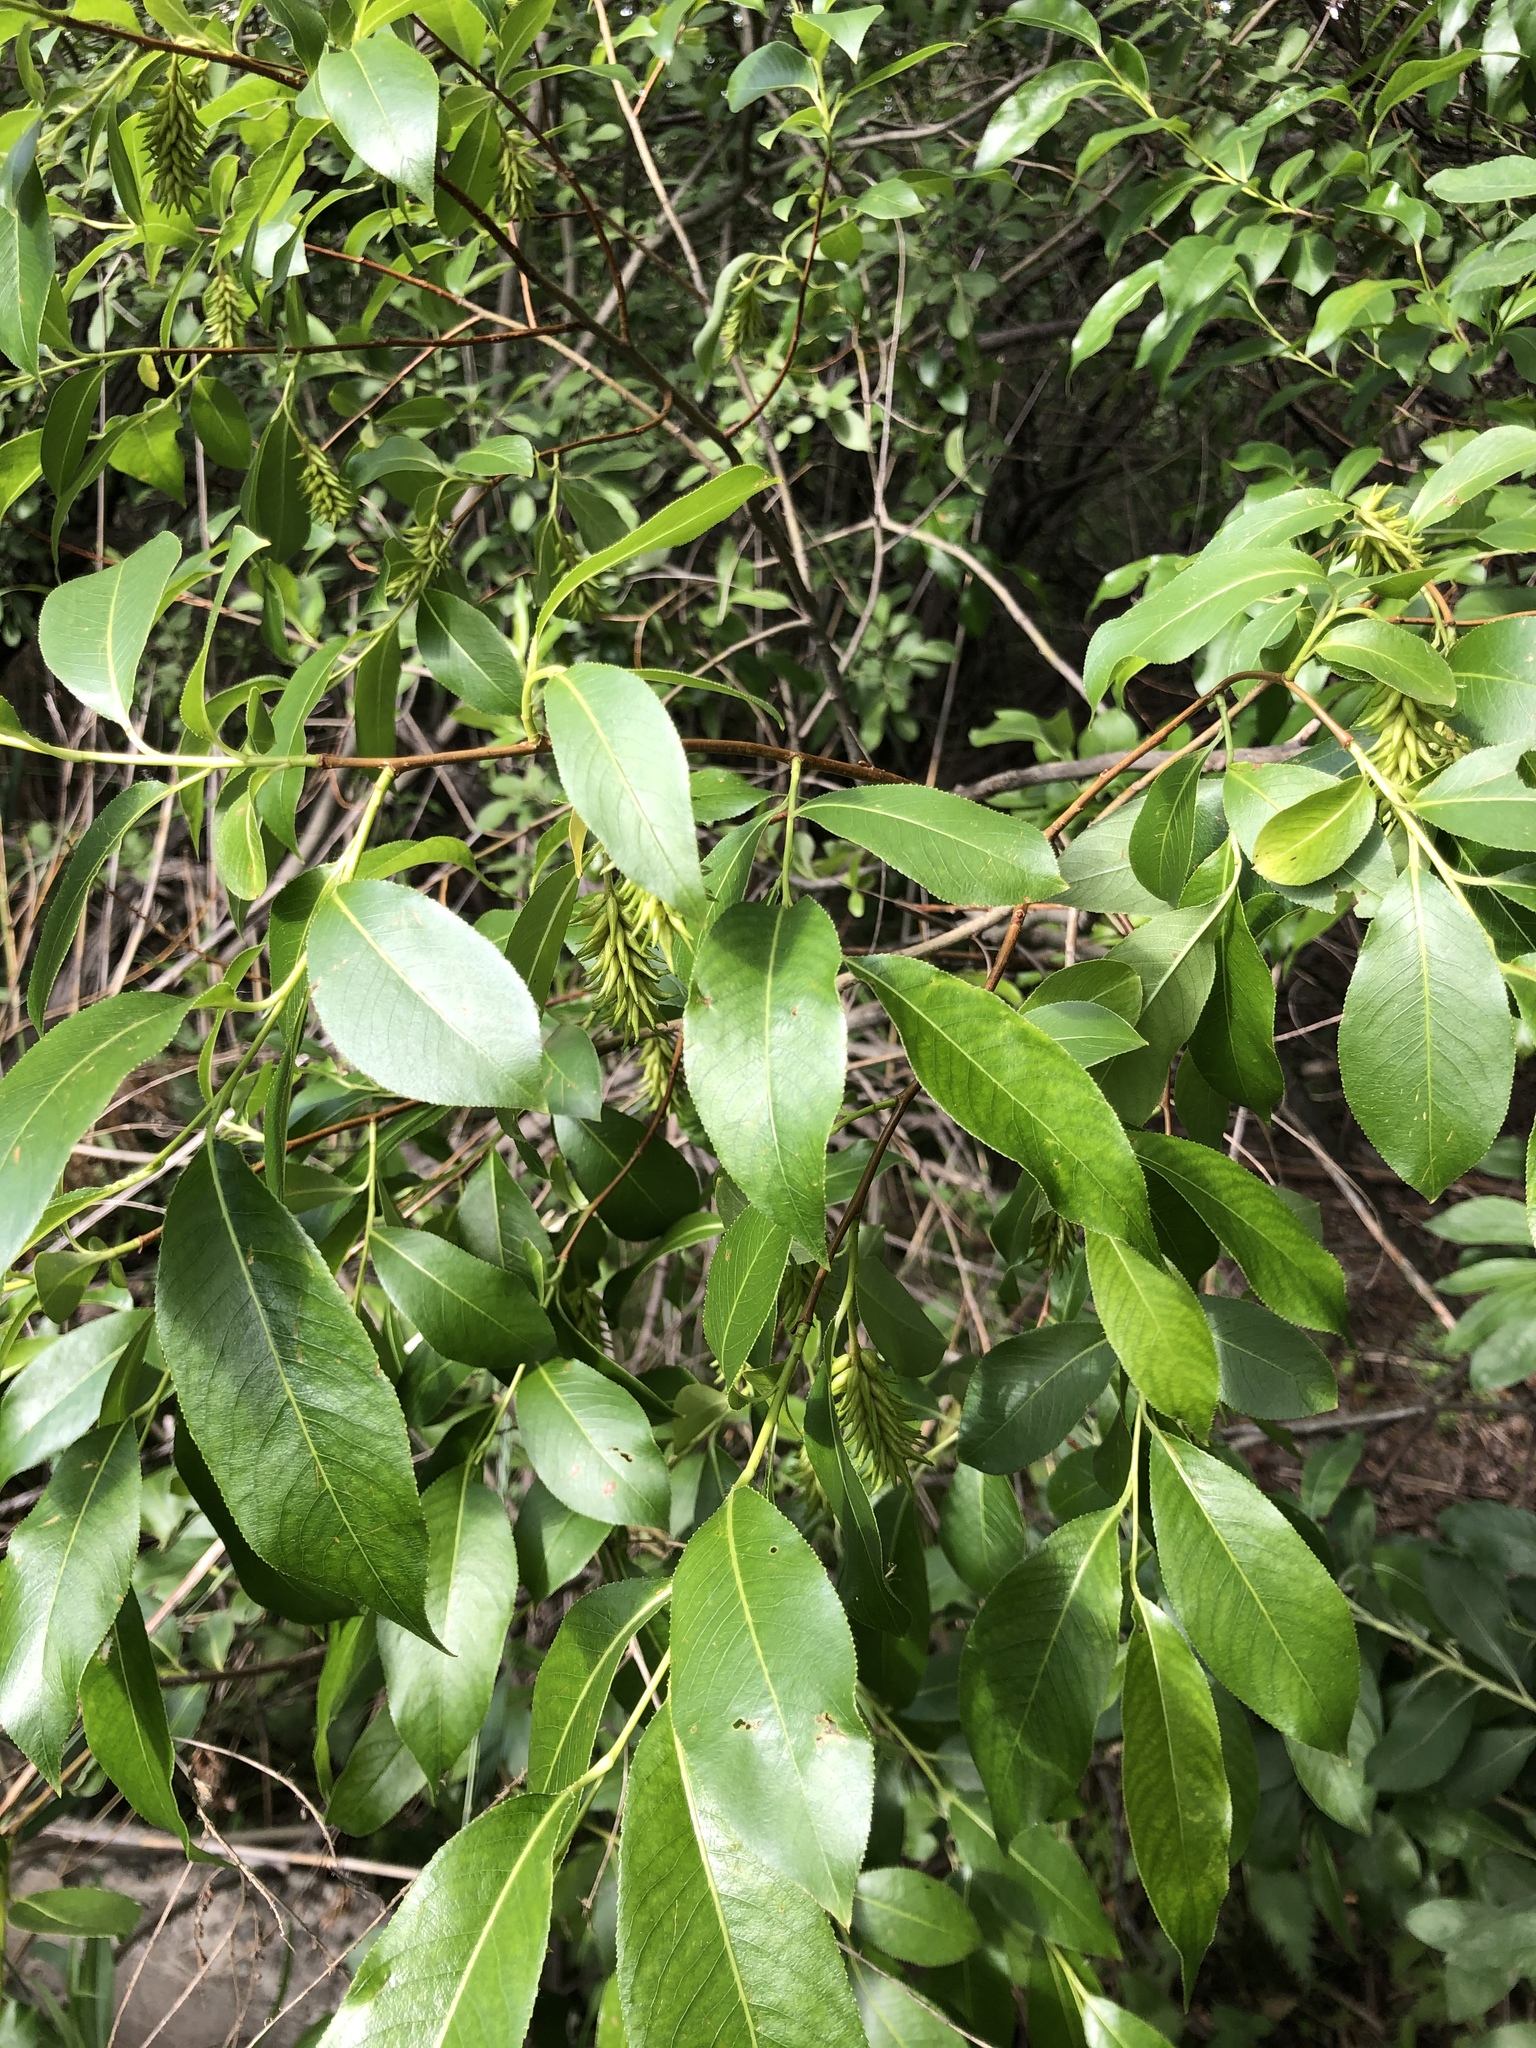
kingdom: Plantae
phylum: Tracheophyta
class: Magnoliopsida
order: Malpighiales
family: Salicaceae
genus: Salix
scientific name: Salix pentandra
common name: Bay willow
